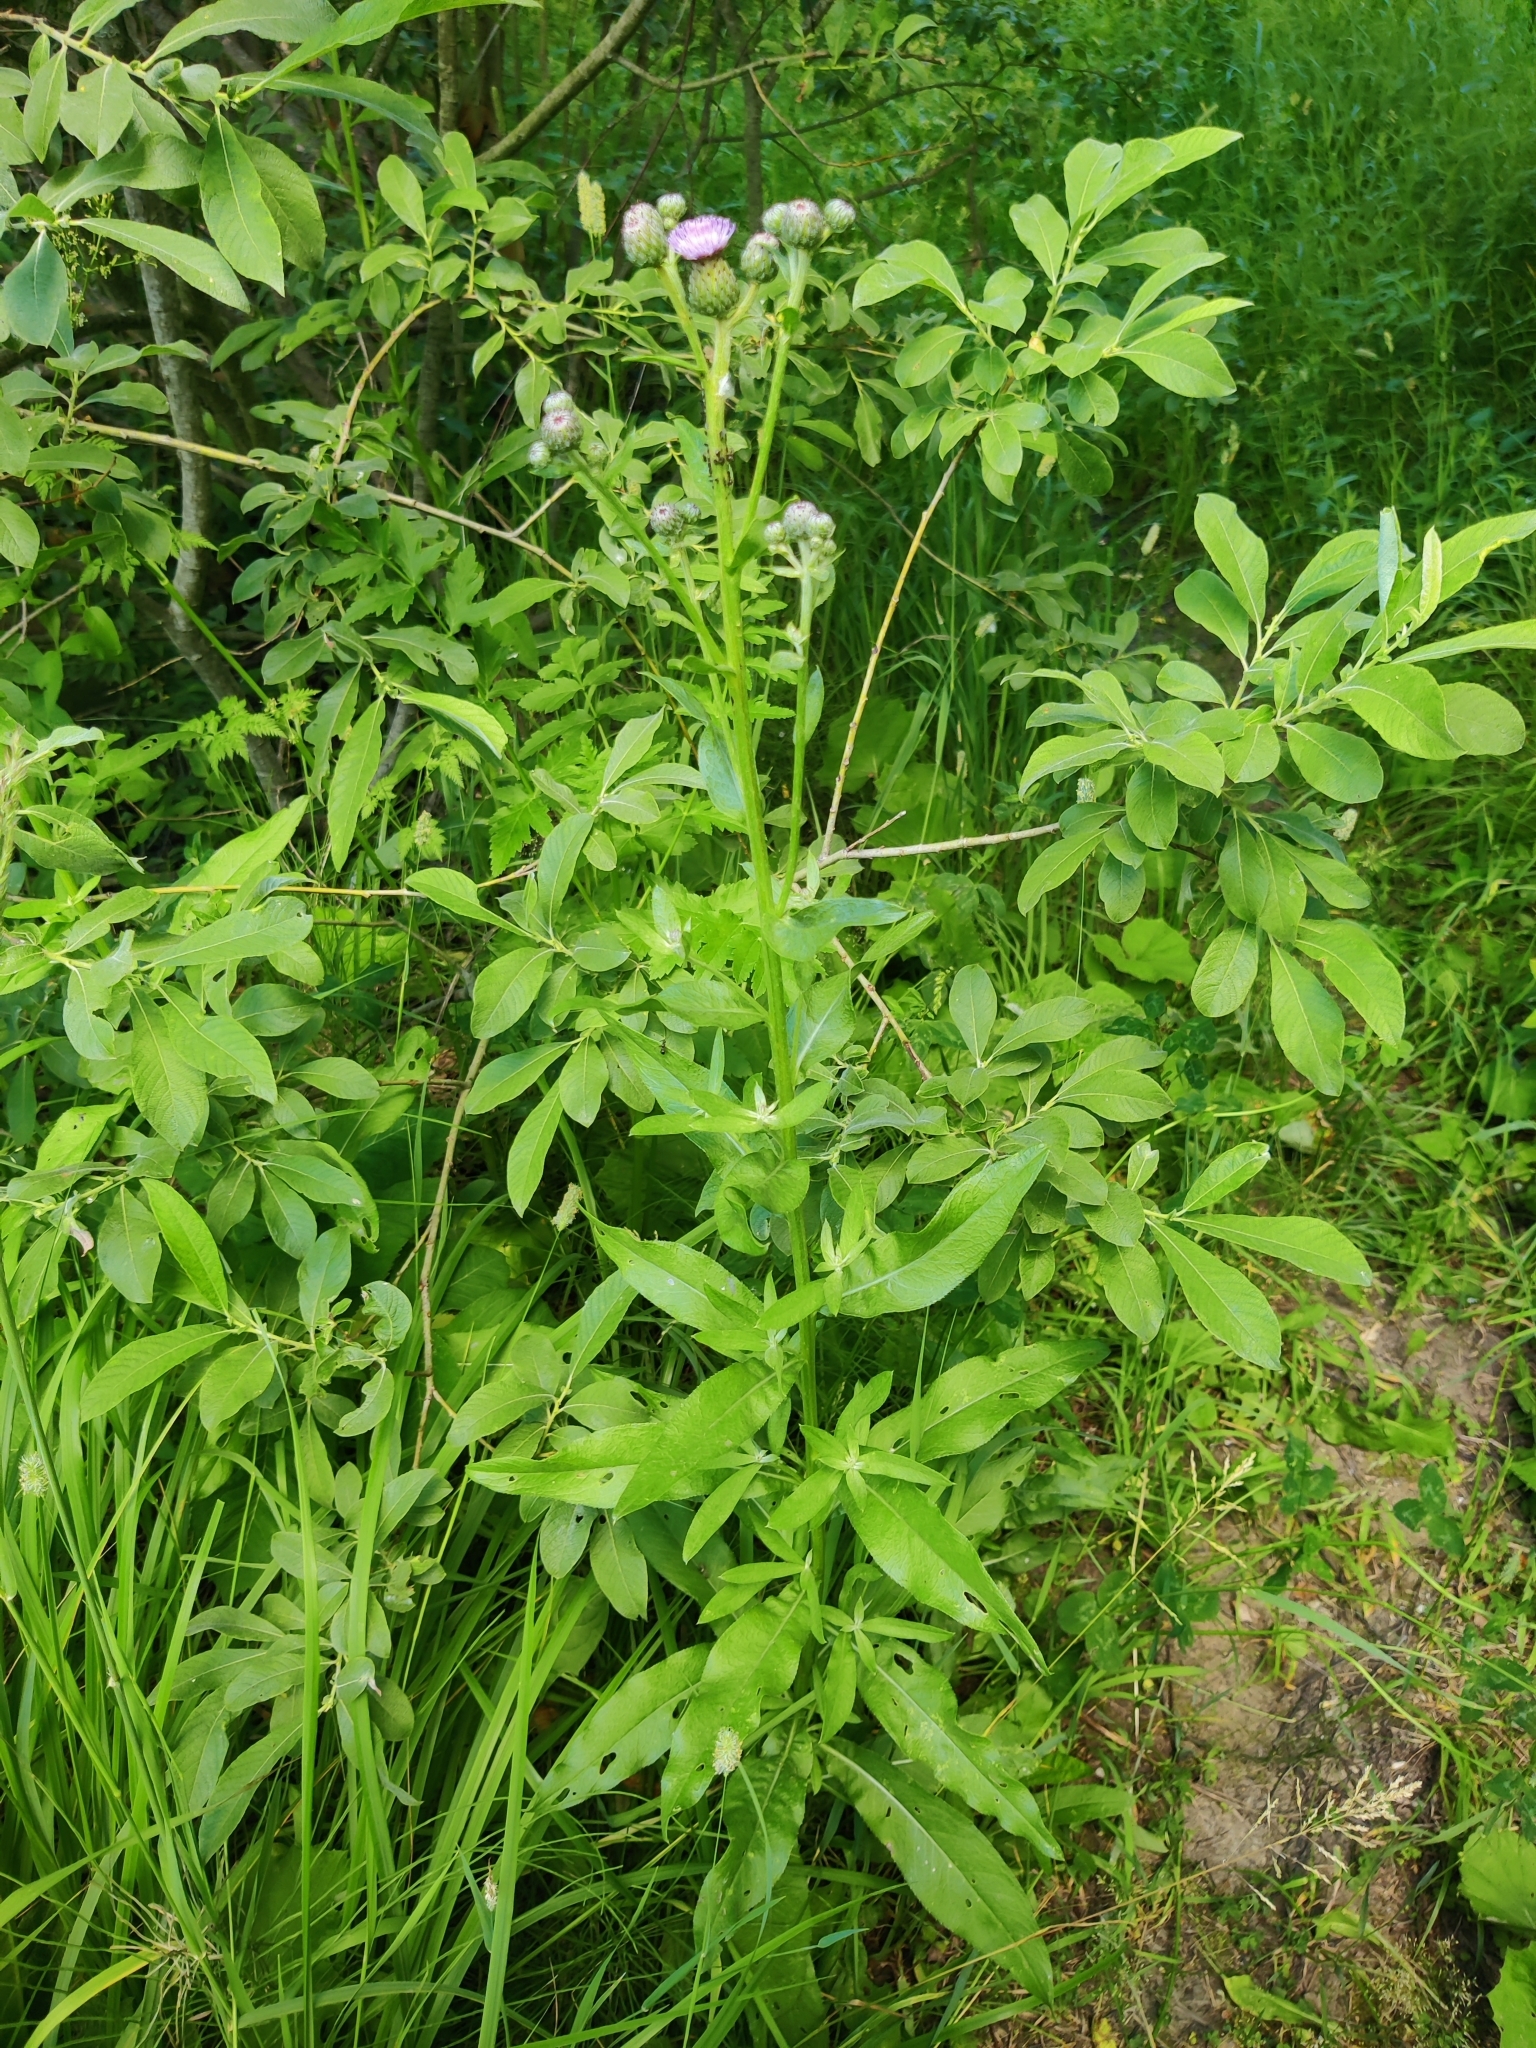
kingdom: Plantae
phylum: Tracheophyta
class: Magnoliopsida
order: Asterales
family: Asteraceae
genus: Cirsium
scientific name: Cirsium arvense
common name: Creeping thistle
